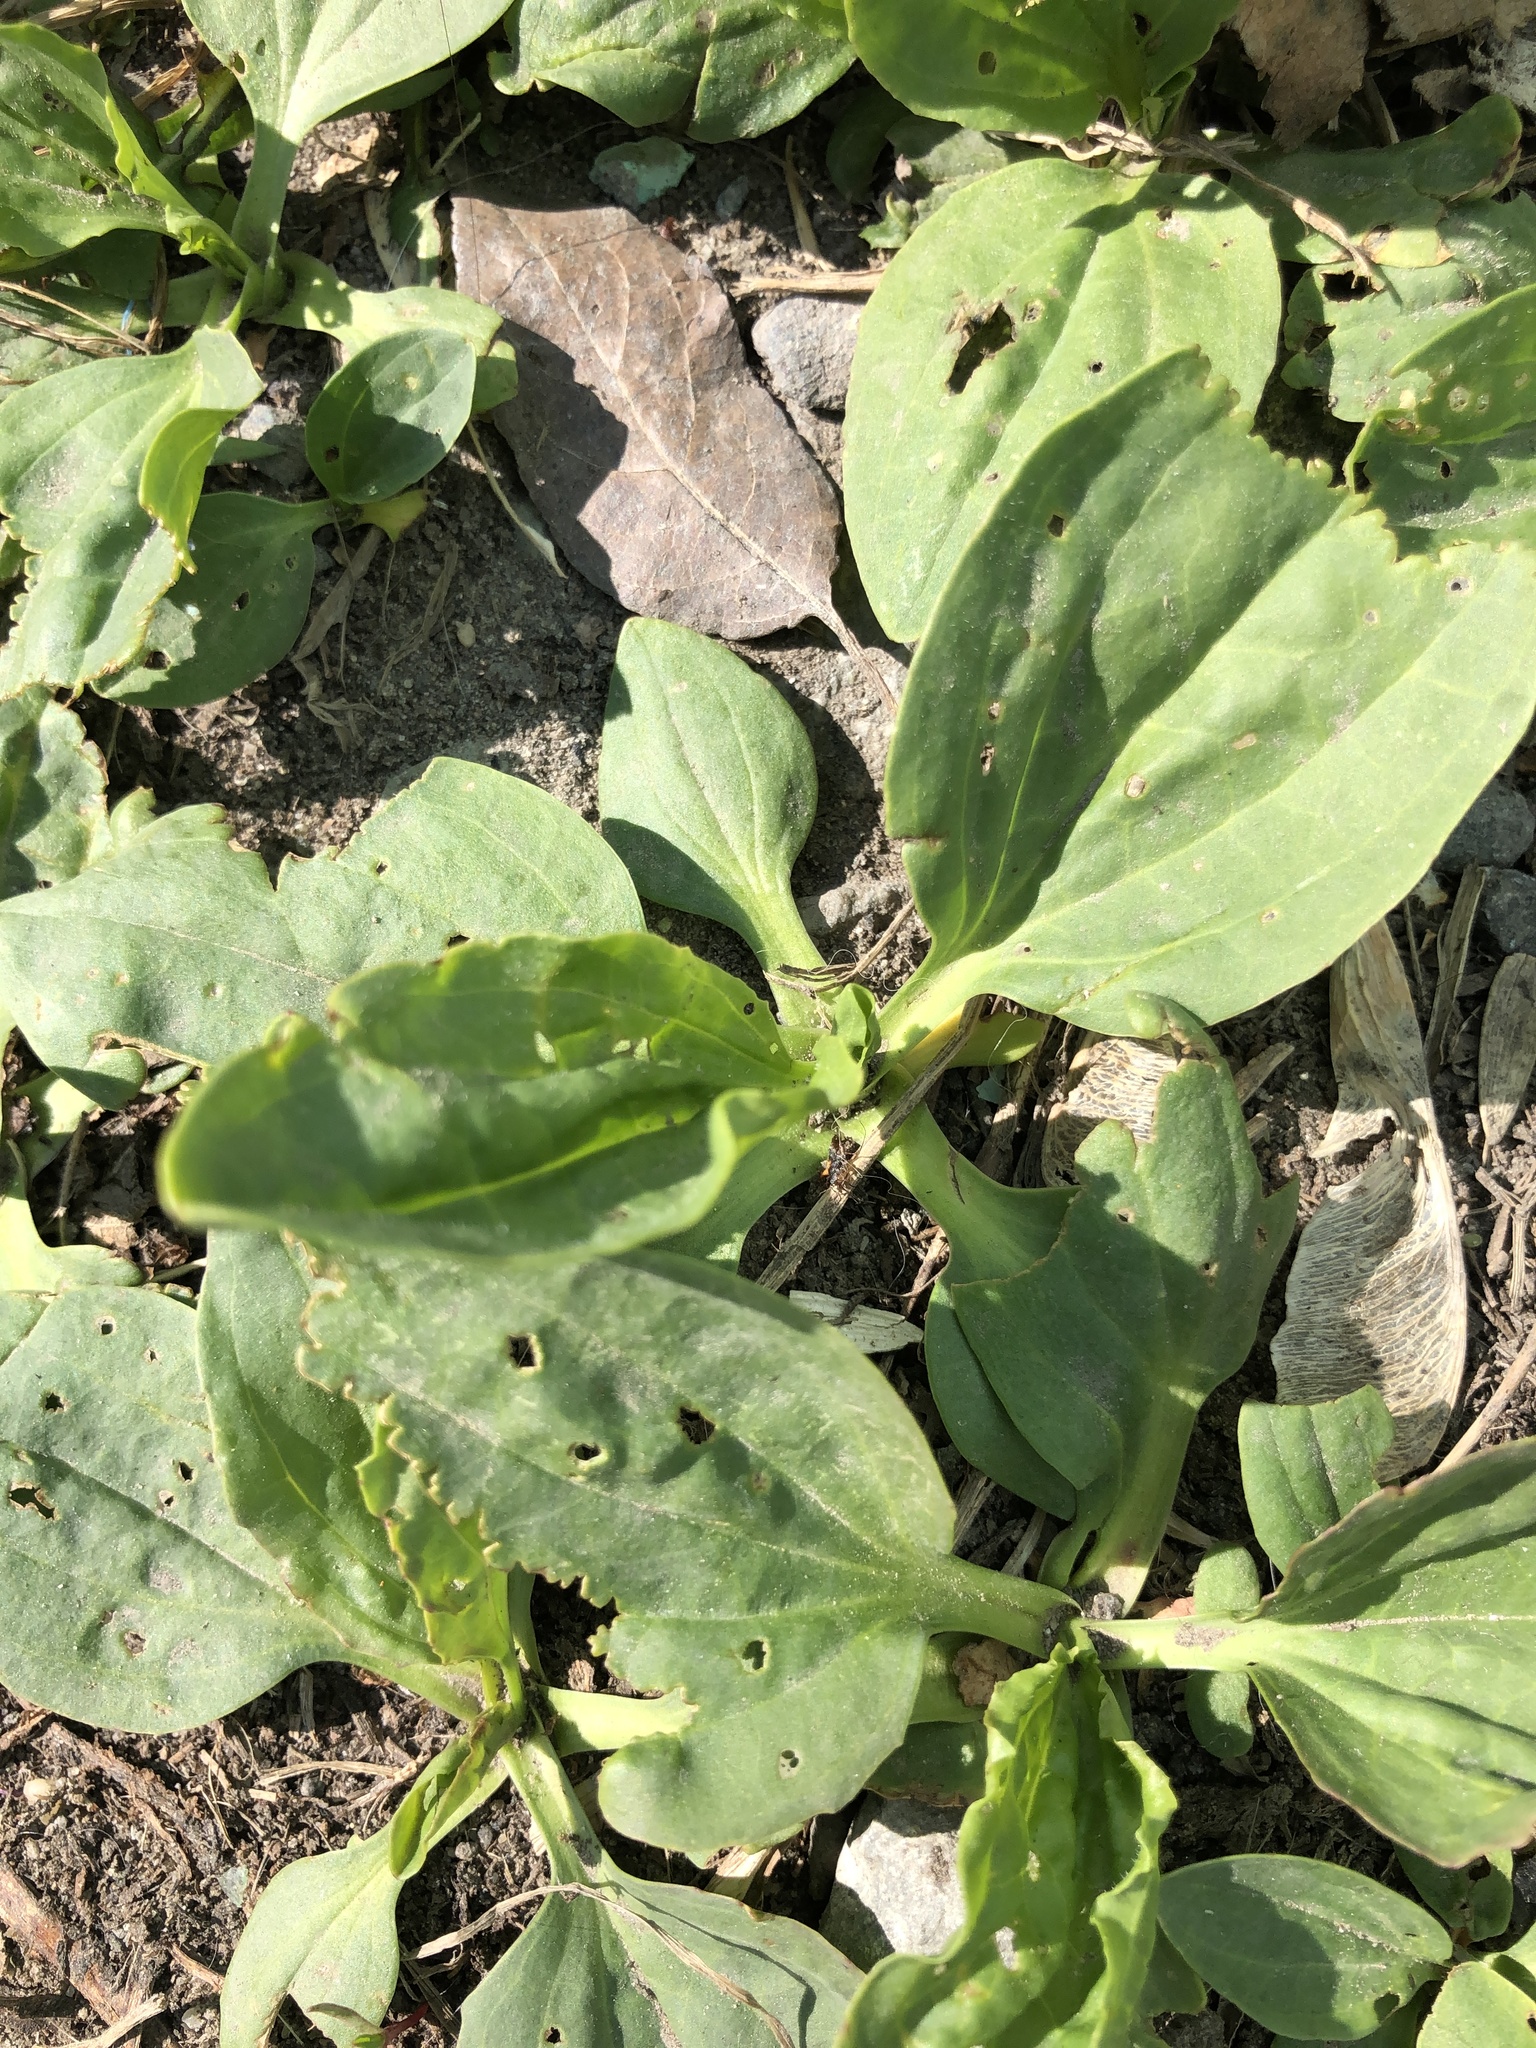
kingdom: Plantae
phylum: Tracheophyta
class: Magnoliopsida
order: Lamiales
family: Plantaginaceae
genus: Plantago
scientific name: Plantago major
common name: Common plantain
